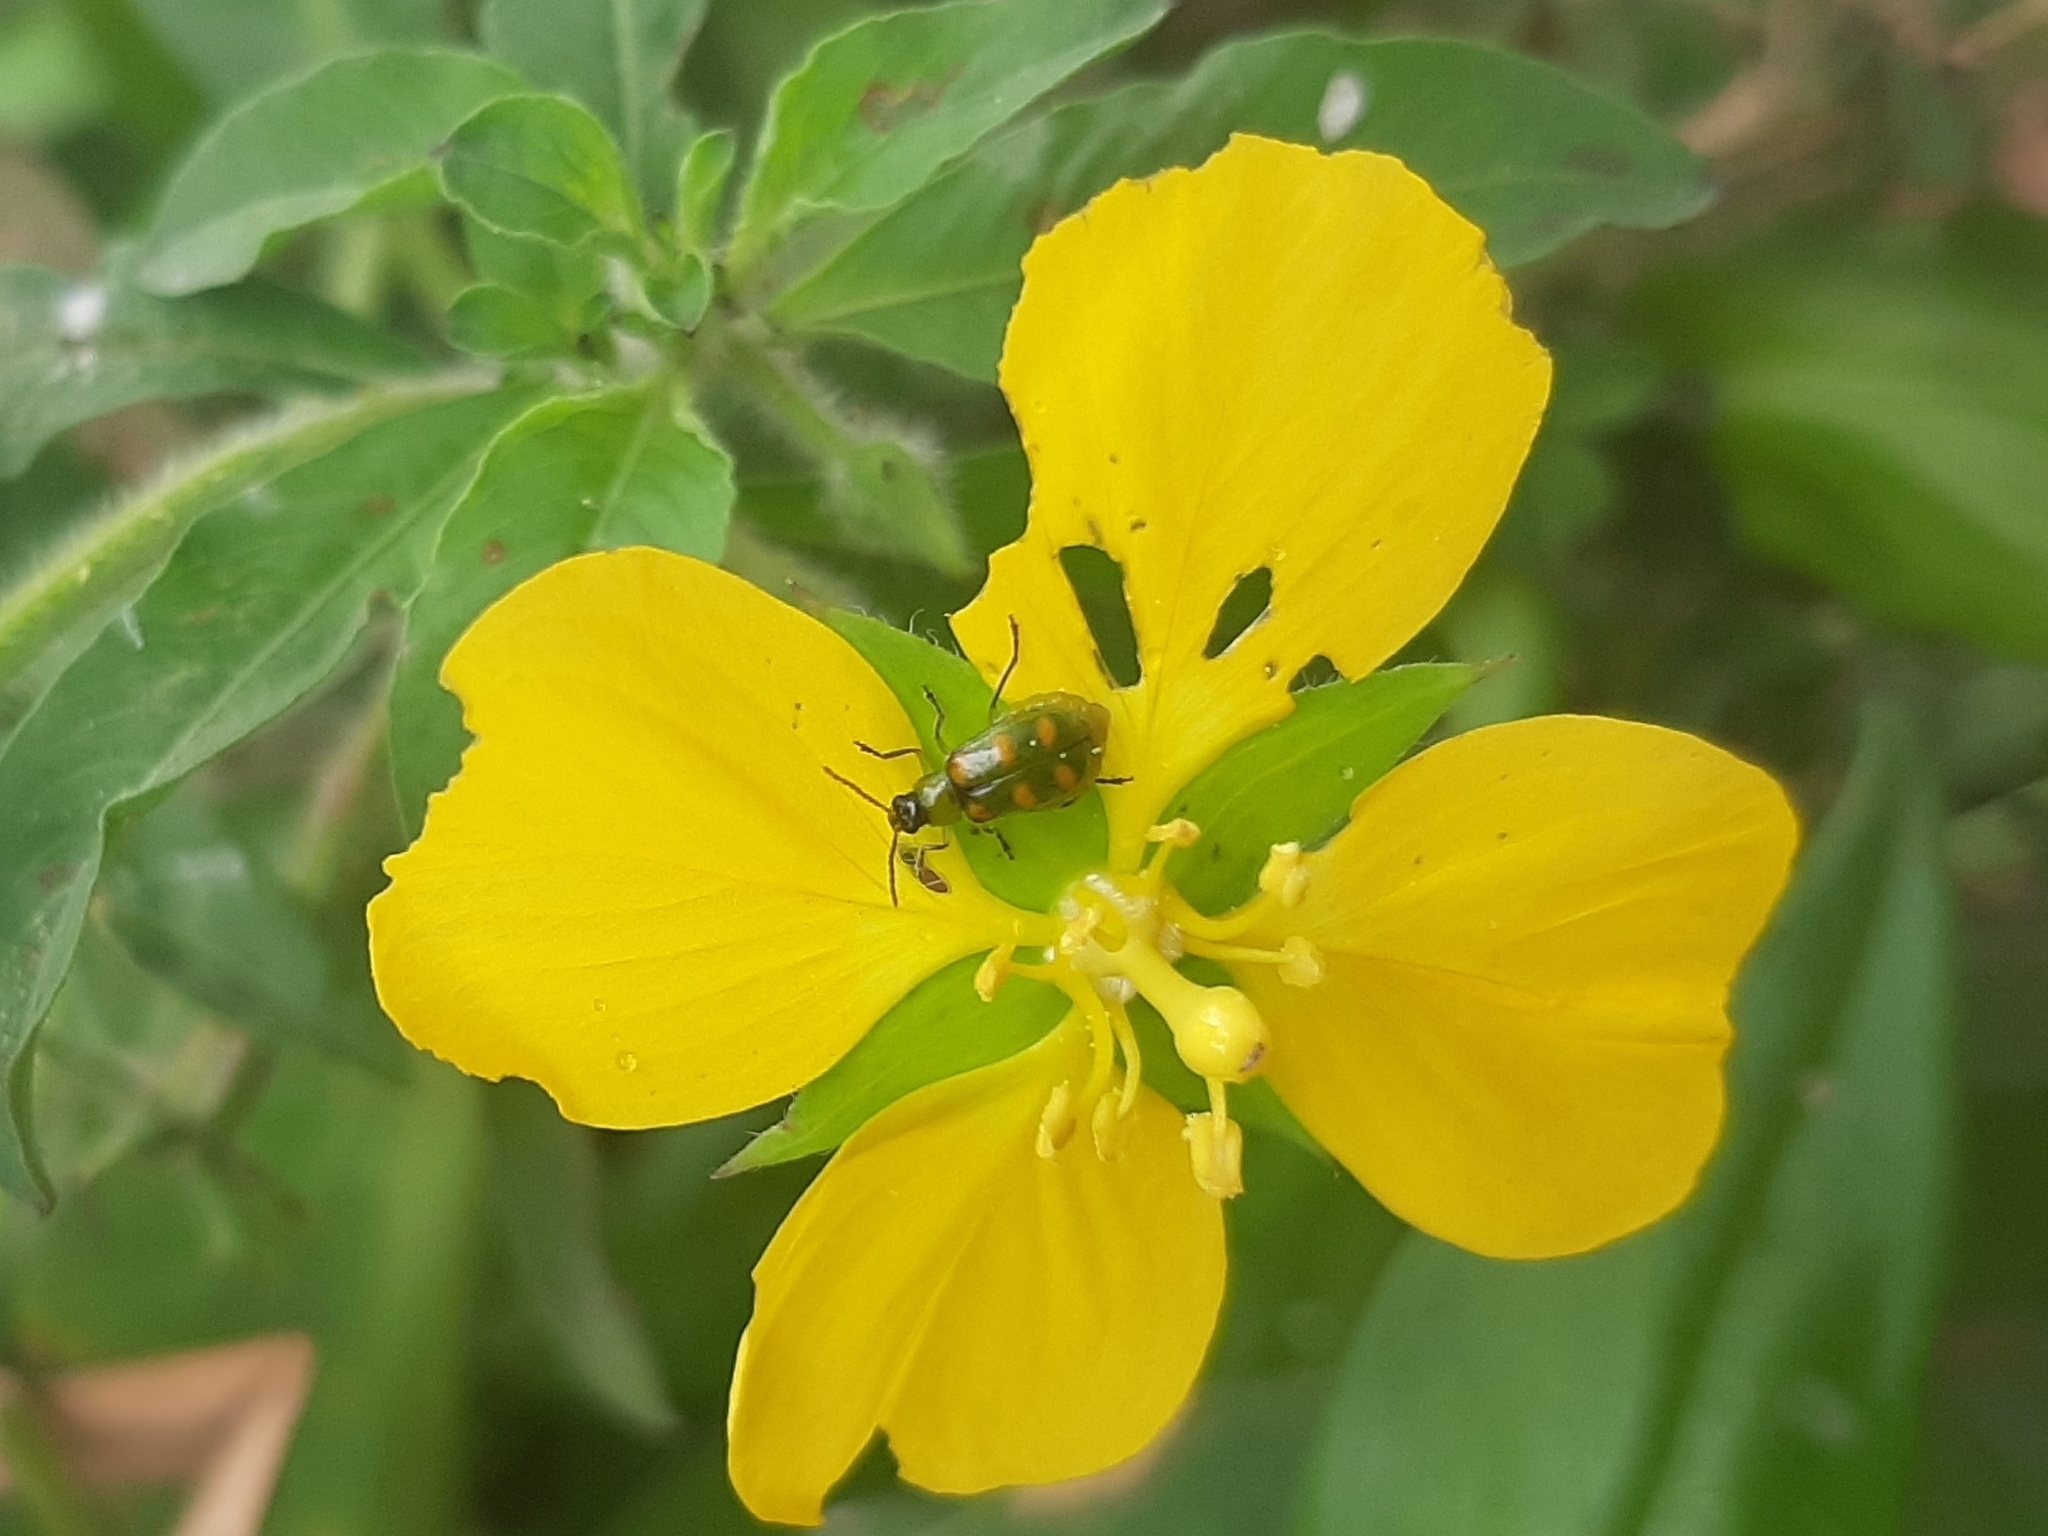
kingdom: Animalia
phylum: Arthropoda
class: Insecta
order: Coleoptera
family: Chrysomelidae
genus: Diabrotica
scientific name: Diabrotica speciosa
